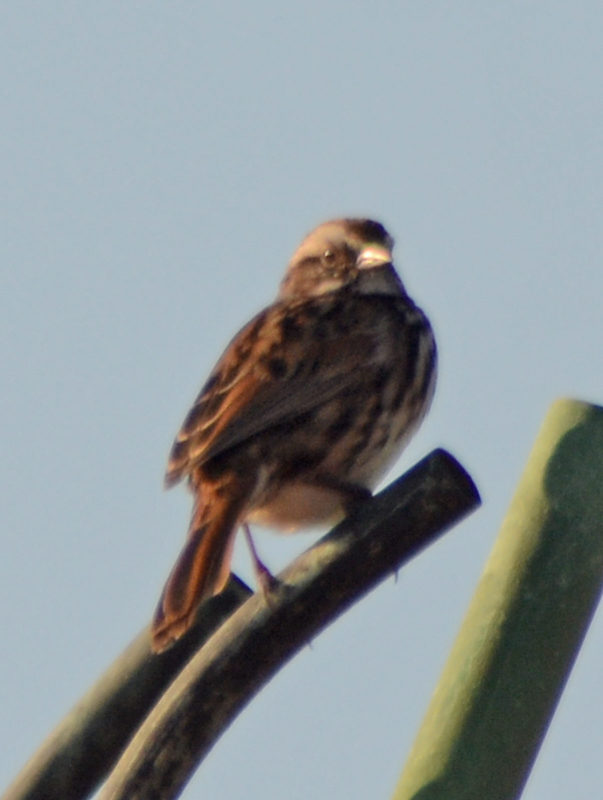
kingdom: Animalia
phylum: Chordata
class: Aves
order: Passeriformes
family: Passerellidae
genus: Melospiza
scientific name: Melospiza melodia
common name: Song sparrow
